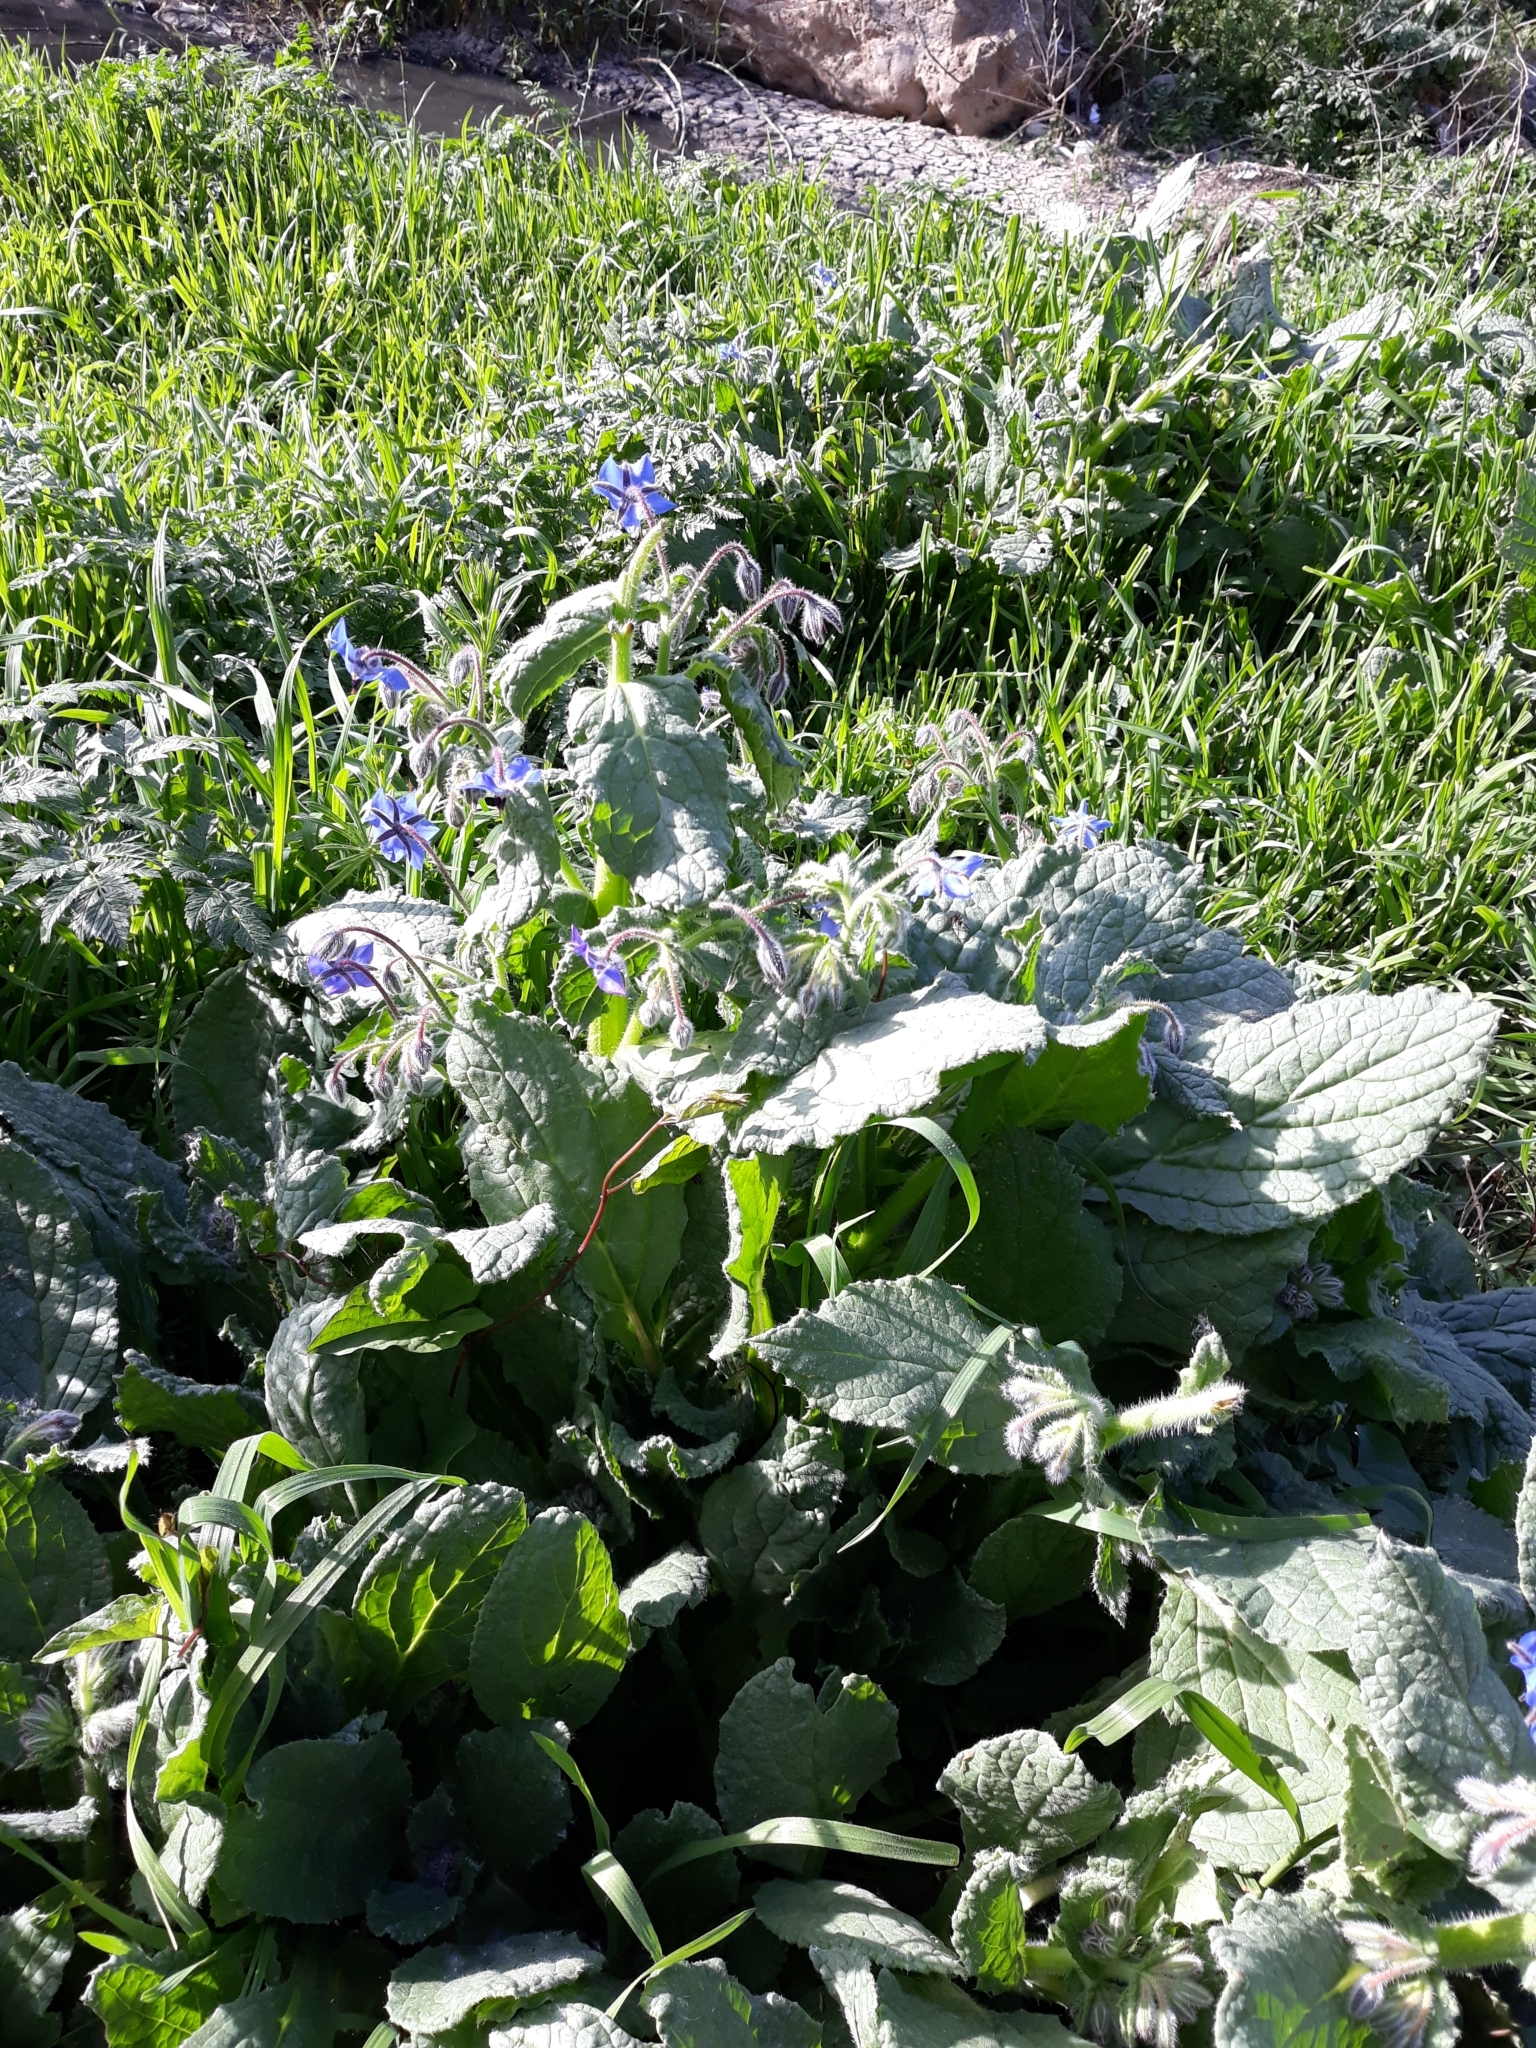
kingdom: Plantae
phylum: Tracheophyta
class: Magnoliopsida
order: Boraginales
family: Boraginaceae
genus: Borago
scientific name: Borago officinalis
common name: Borage
